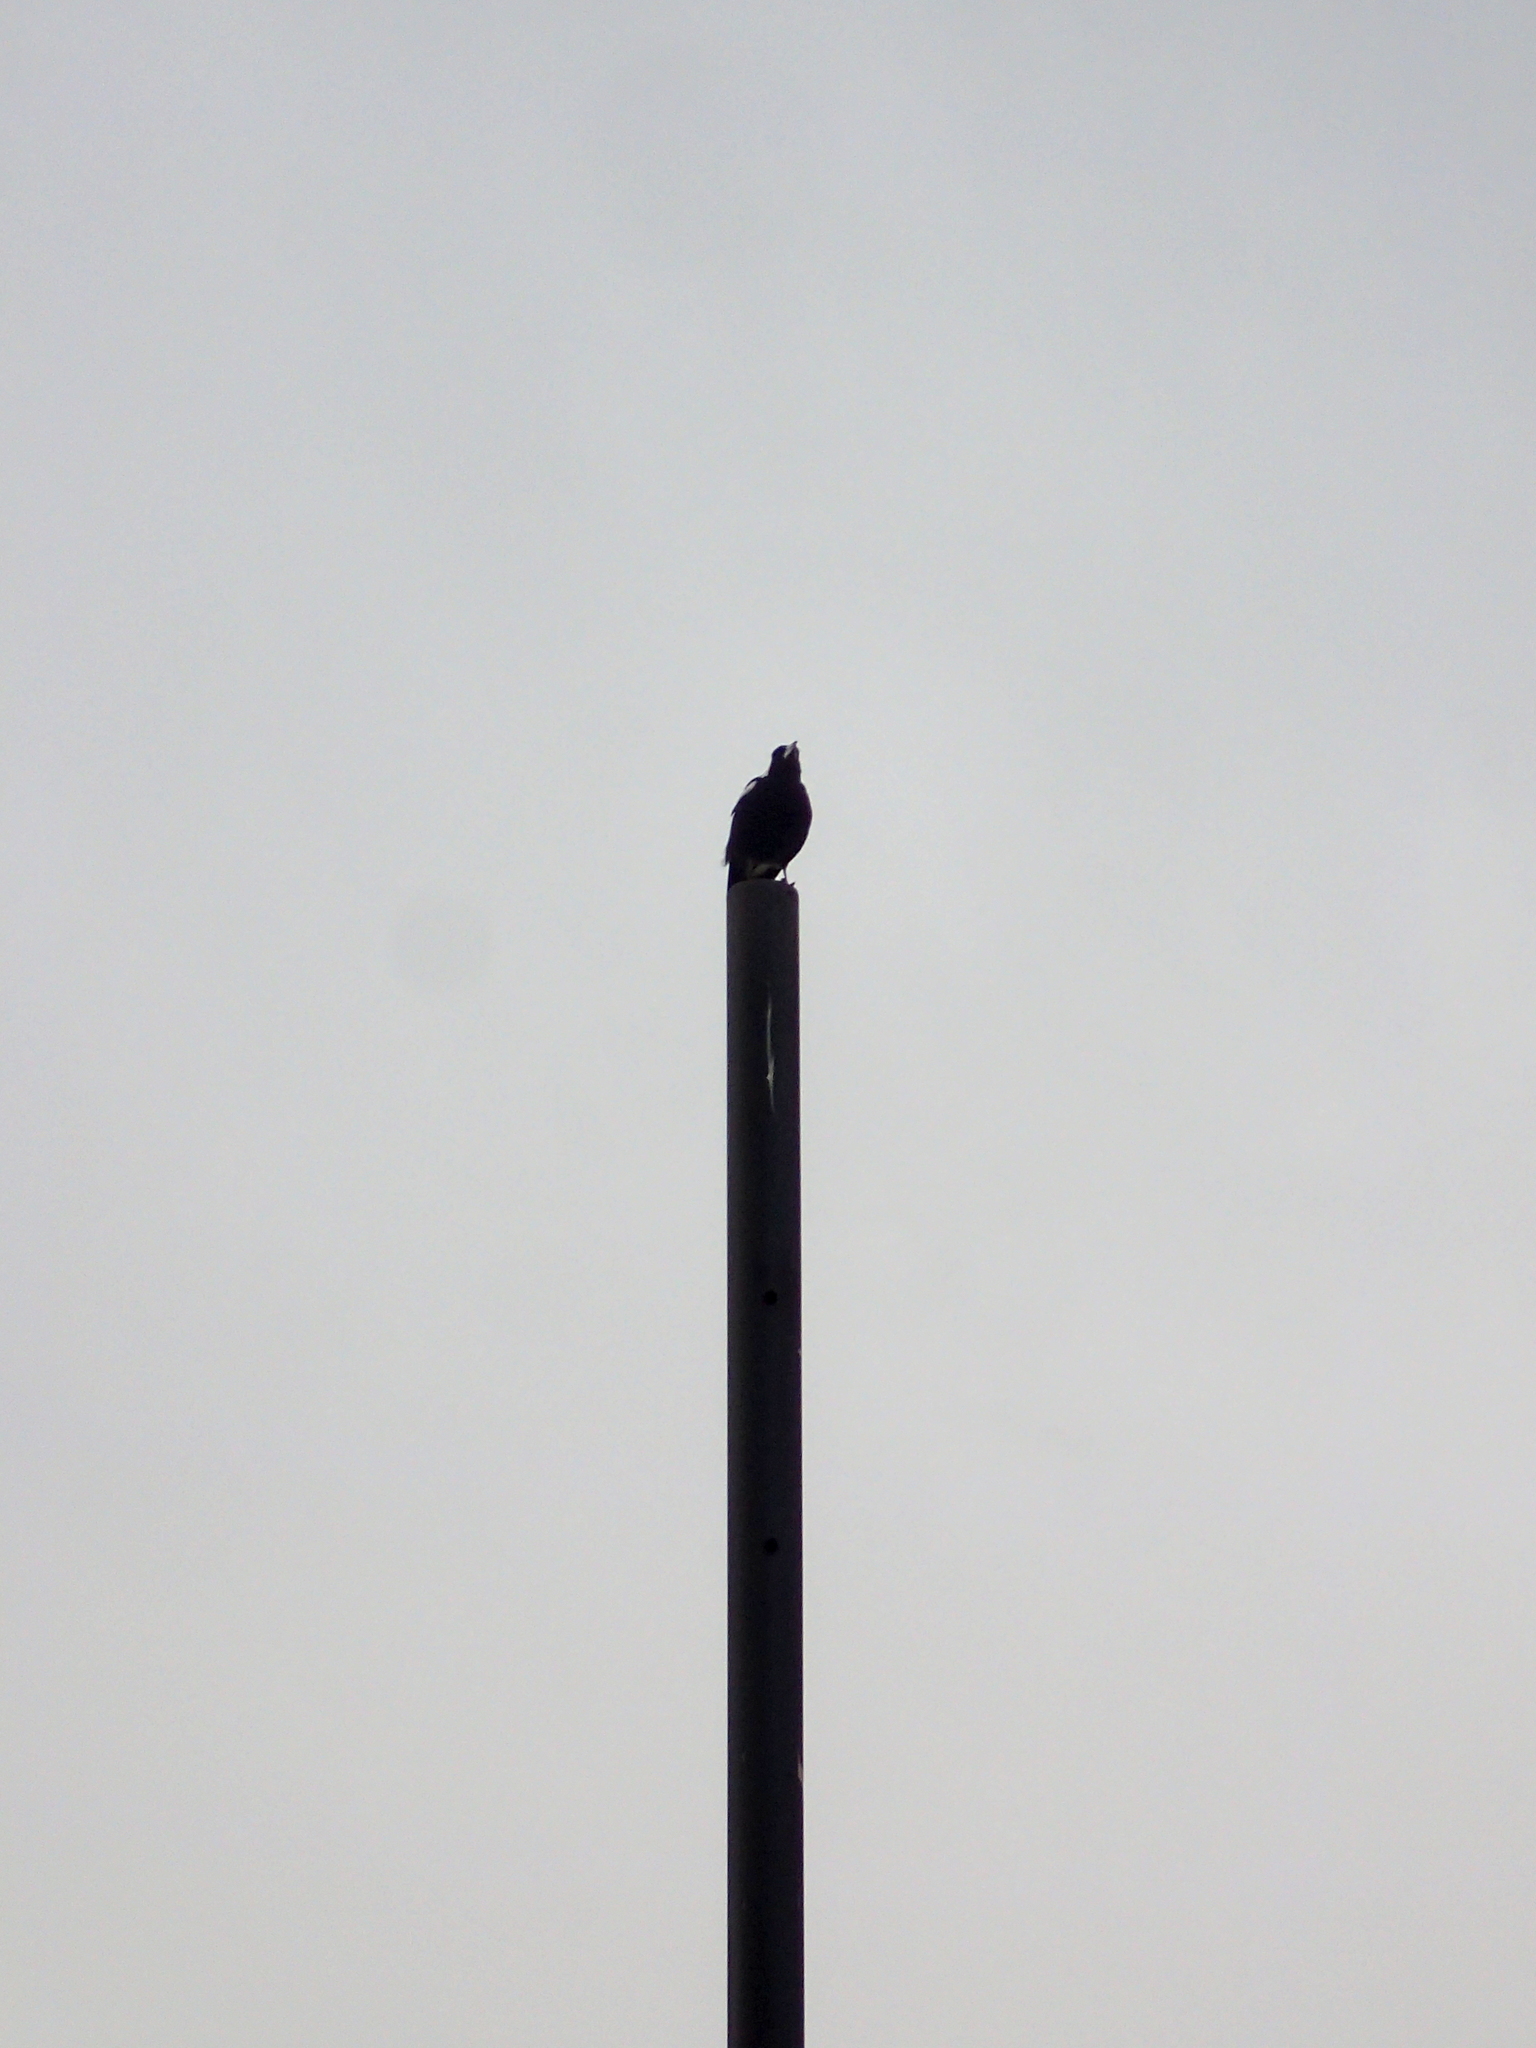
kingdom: Animalia
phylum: Chordata
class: Aves
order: Passeriformes
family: Cracticidae
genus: Gymnorhina
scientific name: Gymnorhina tibicen
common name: Australian magpie
